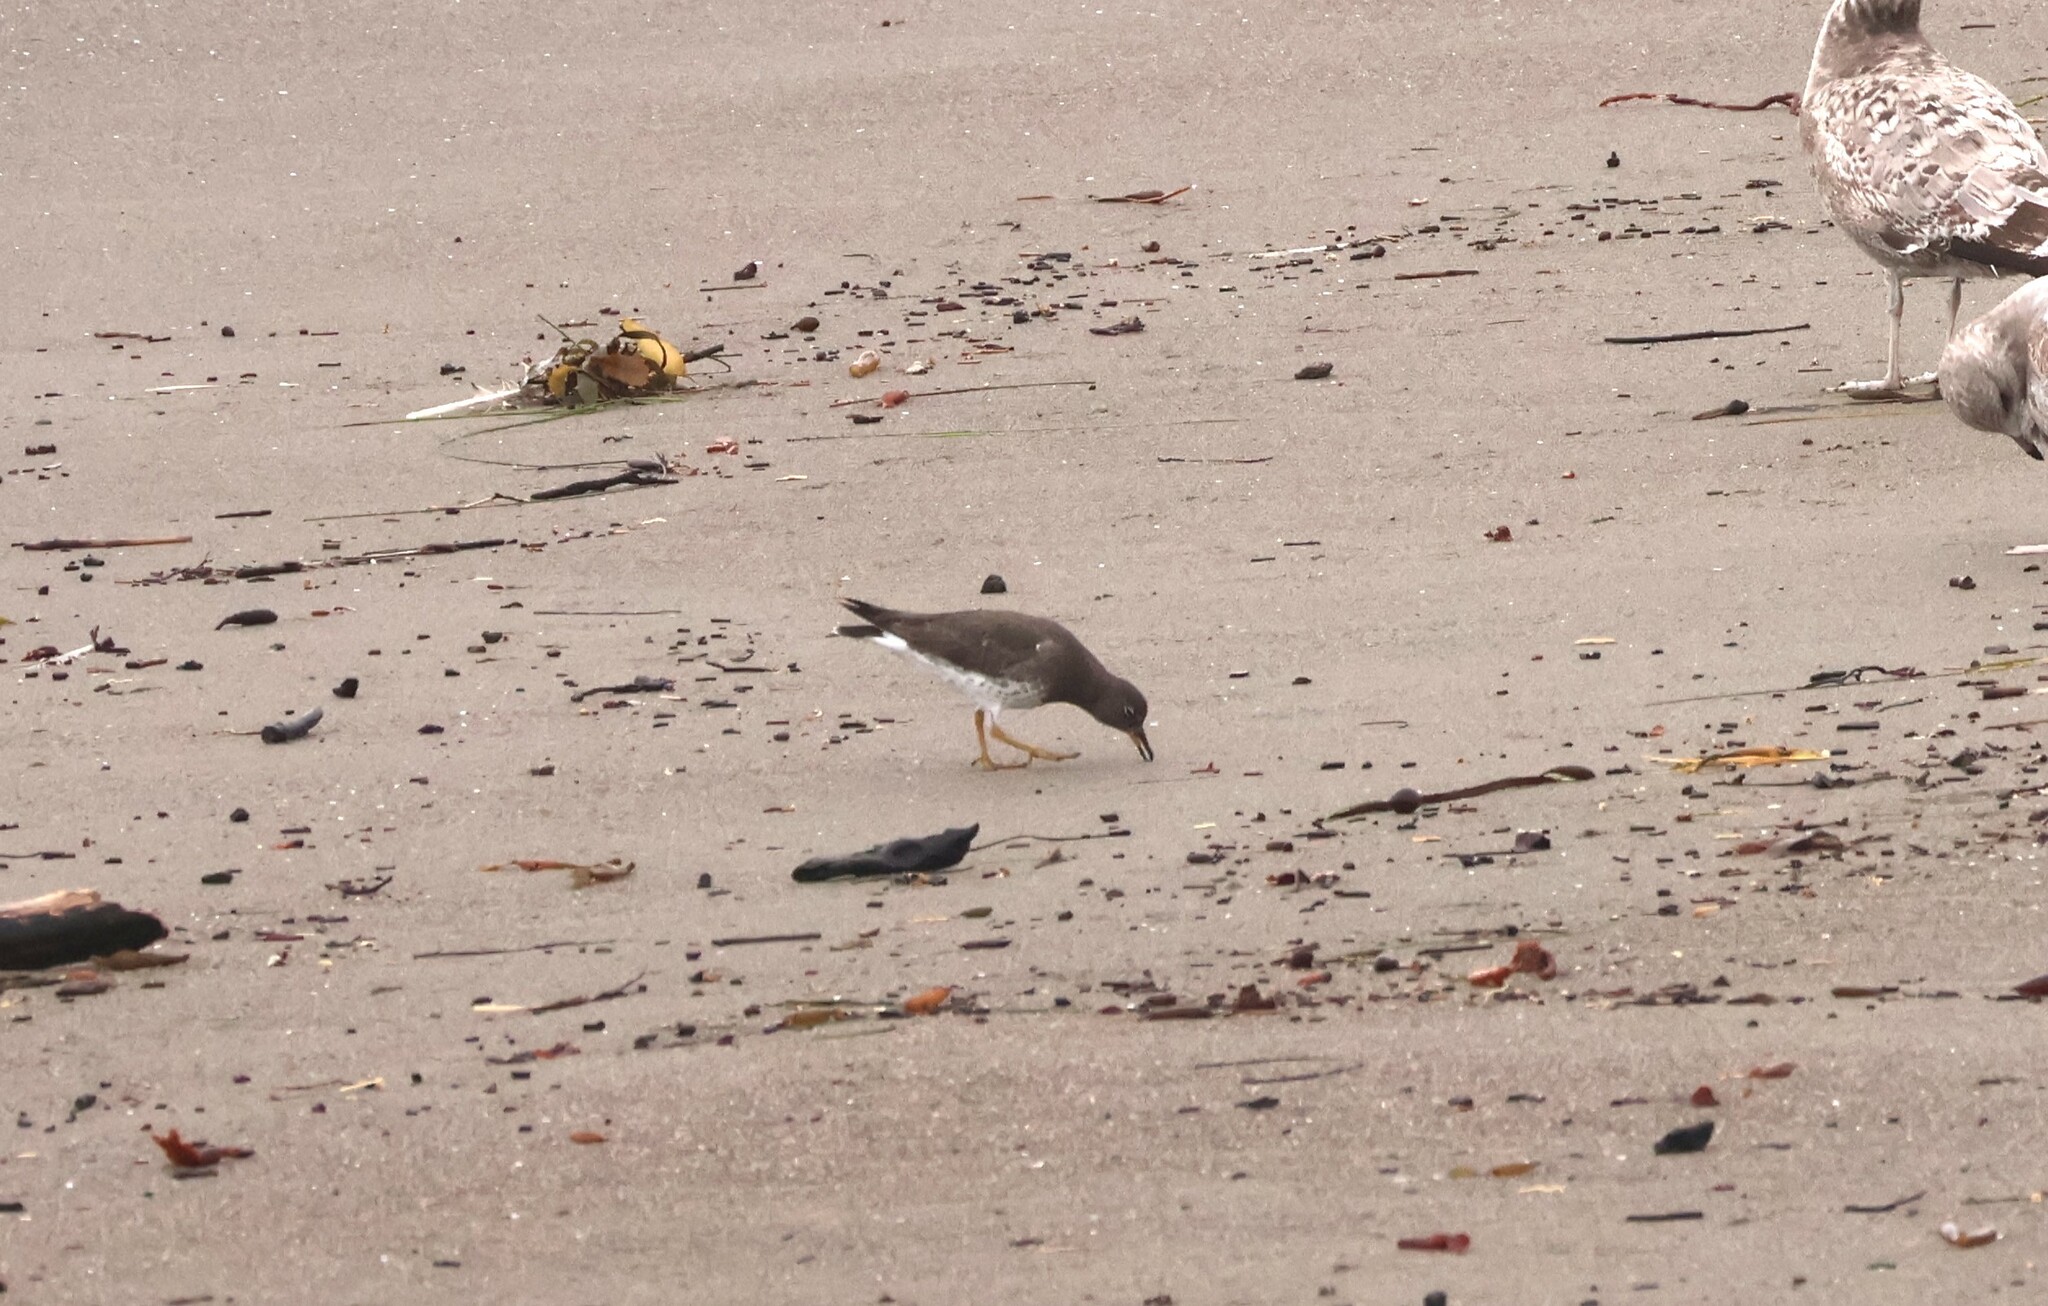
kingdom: Animalia
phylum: Chordata
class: Aves
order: Charadriiformes
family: Scolopacidae
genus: Calidris
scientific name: Calidris virgata
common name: Surfbird
